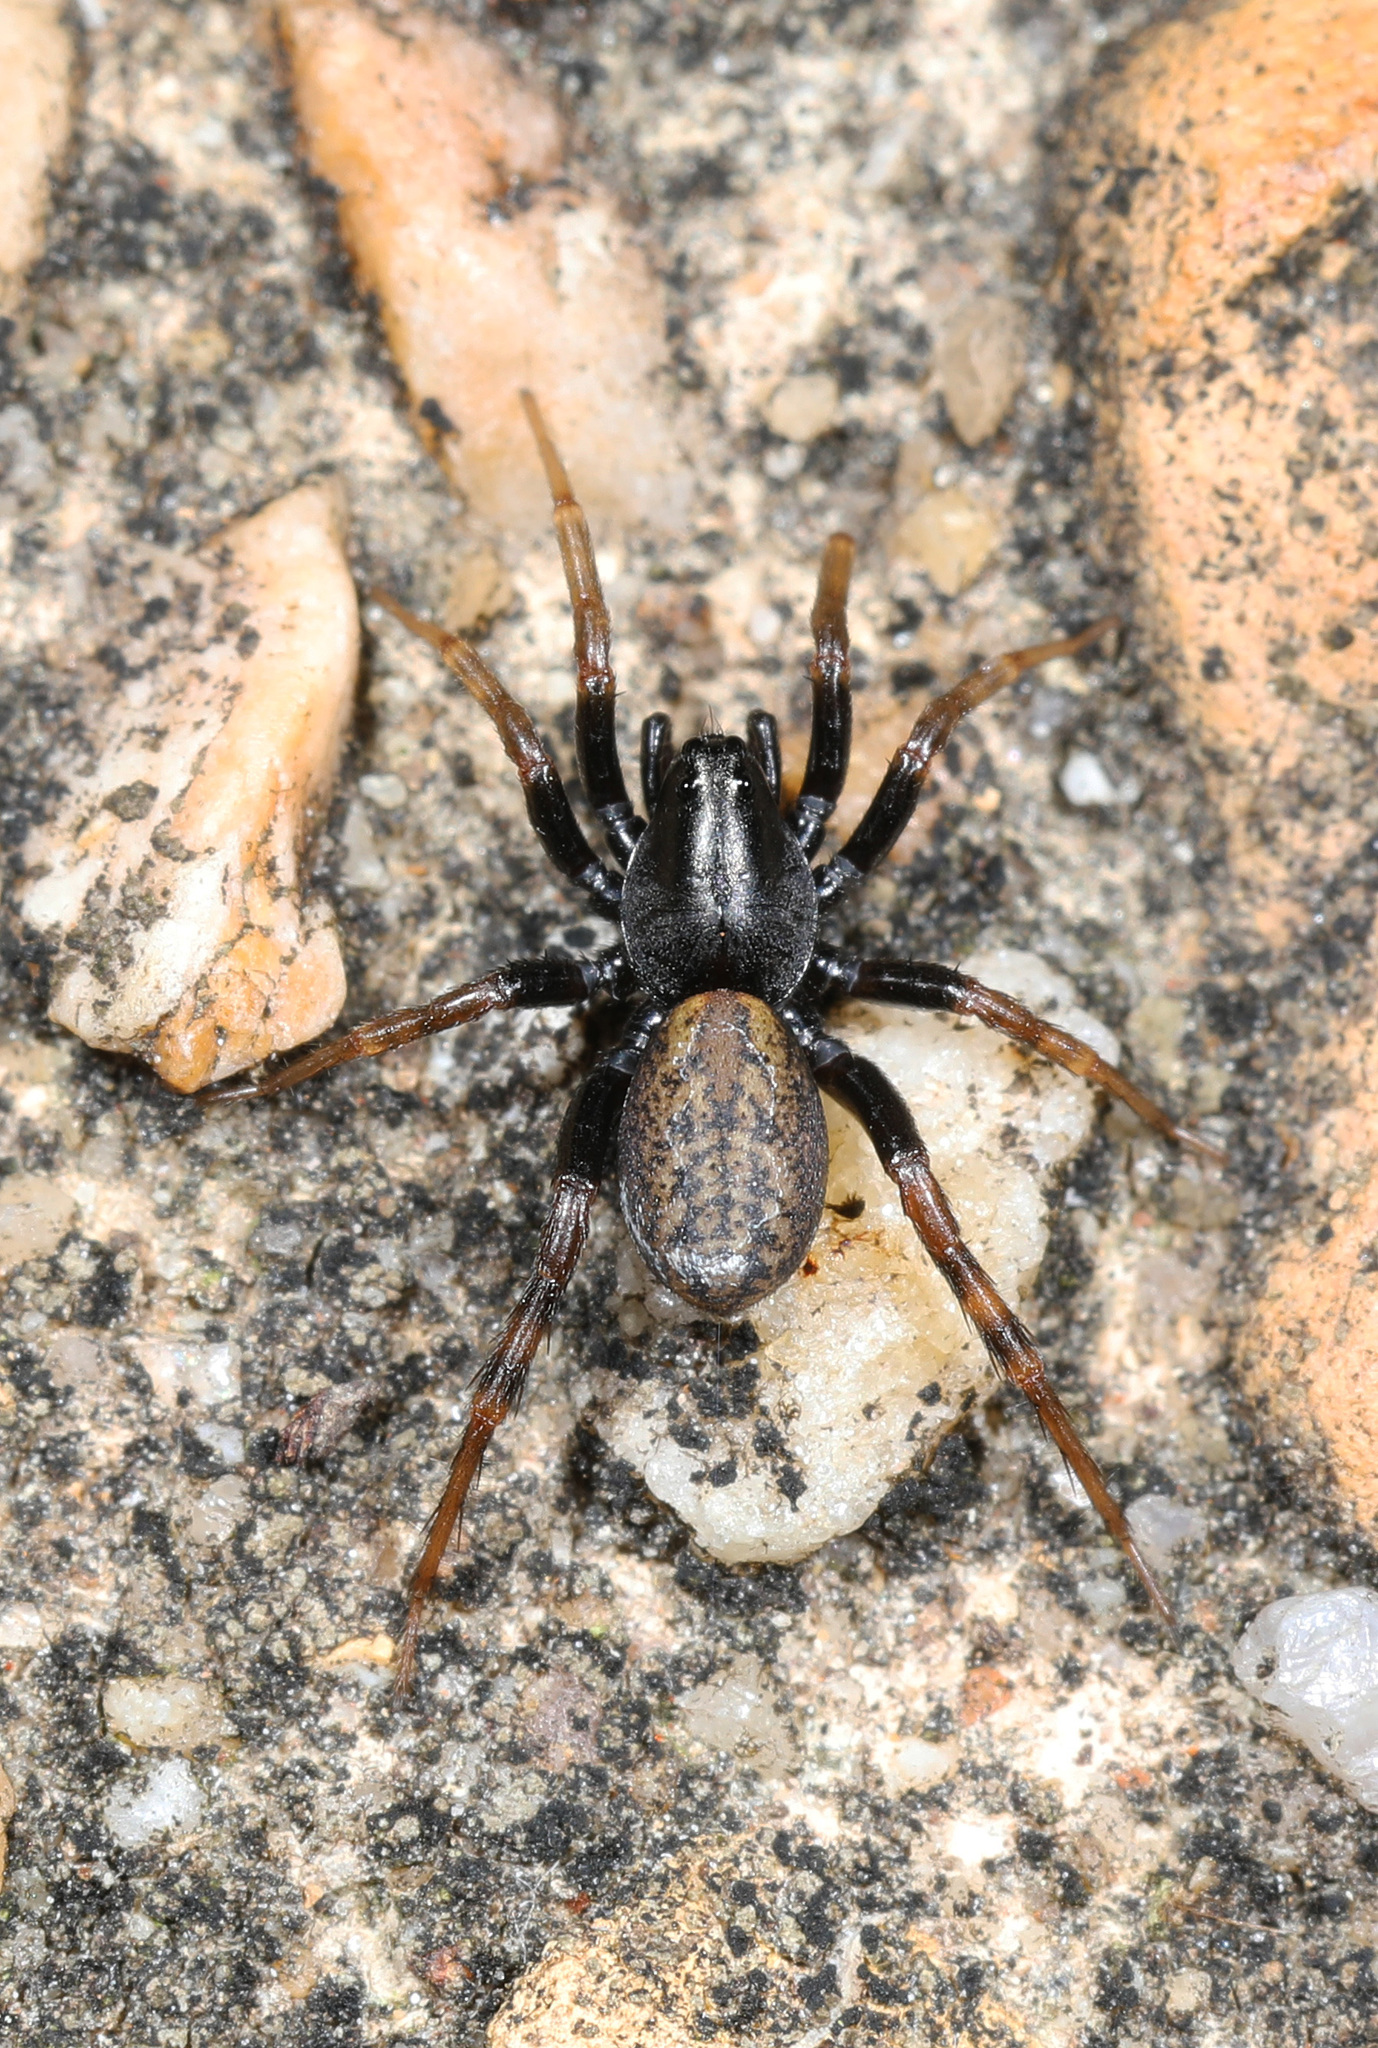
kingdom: Animalia
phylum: Arthropoda
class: Arachnida
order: Araneae
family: Lycosidae
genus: Allocosa
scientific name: Allocosa funerea
